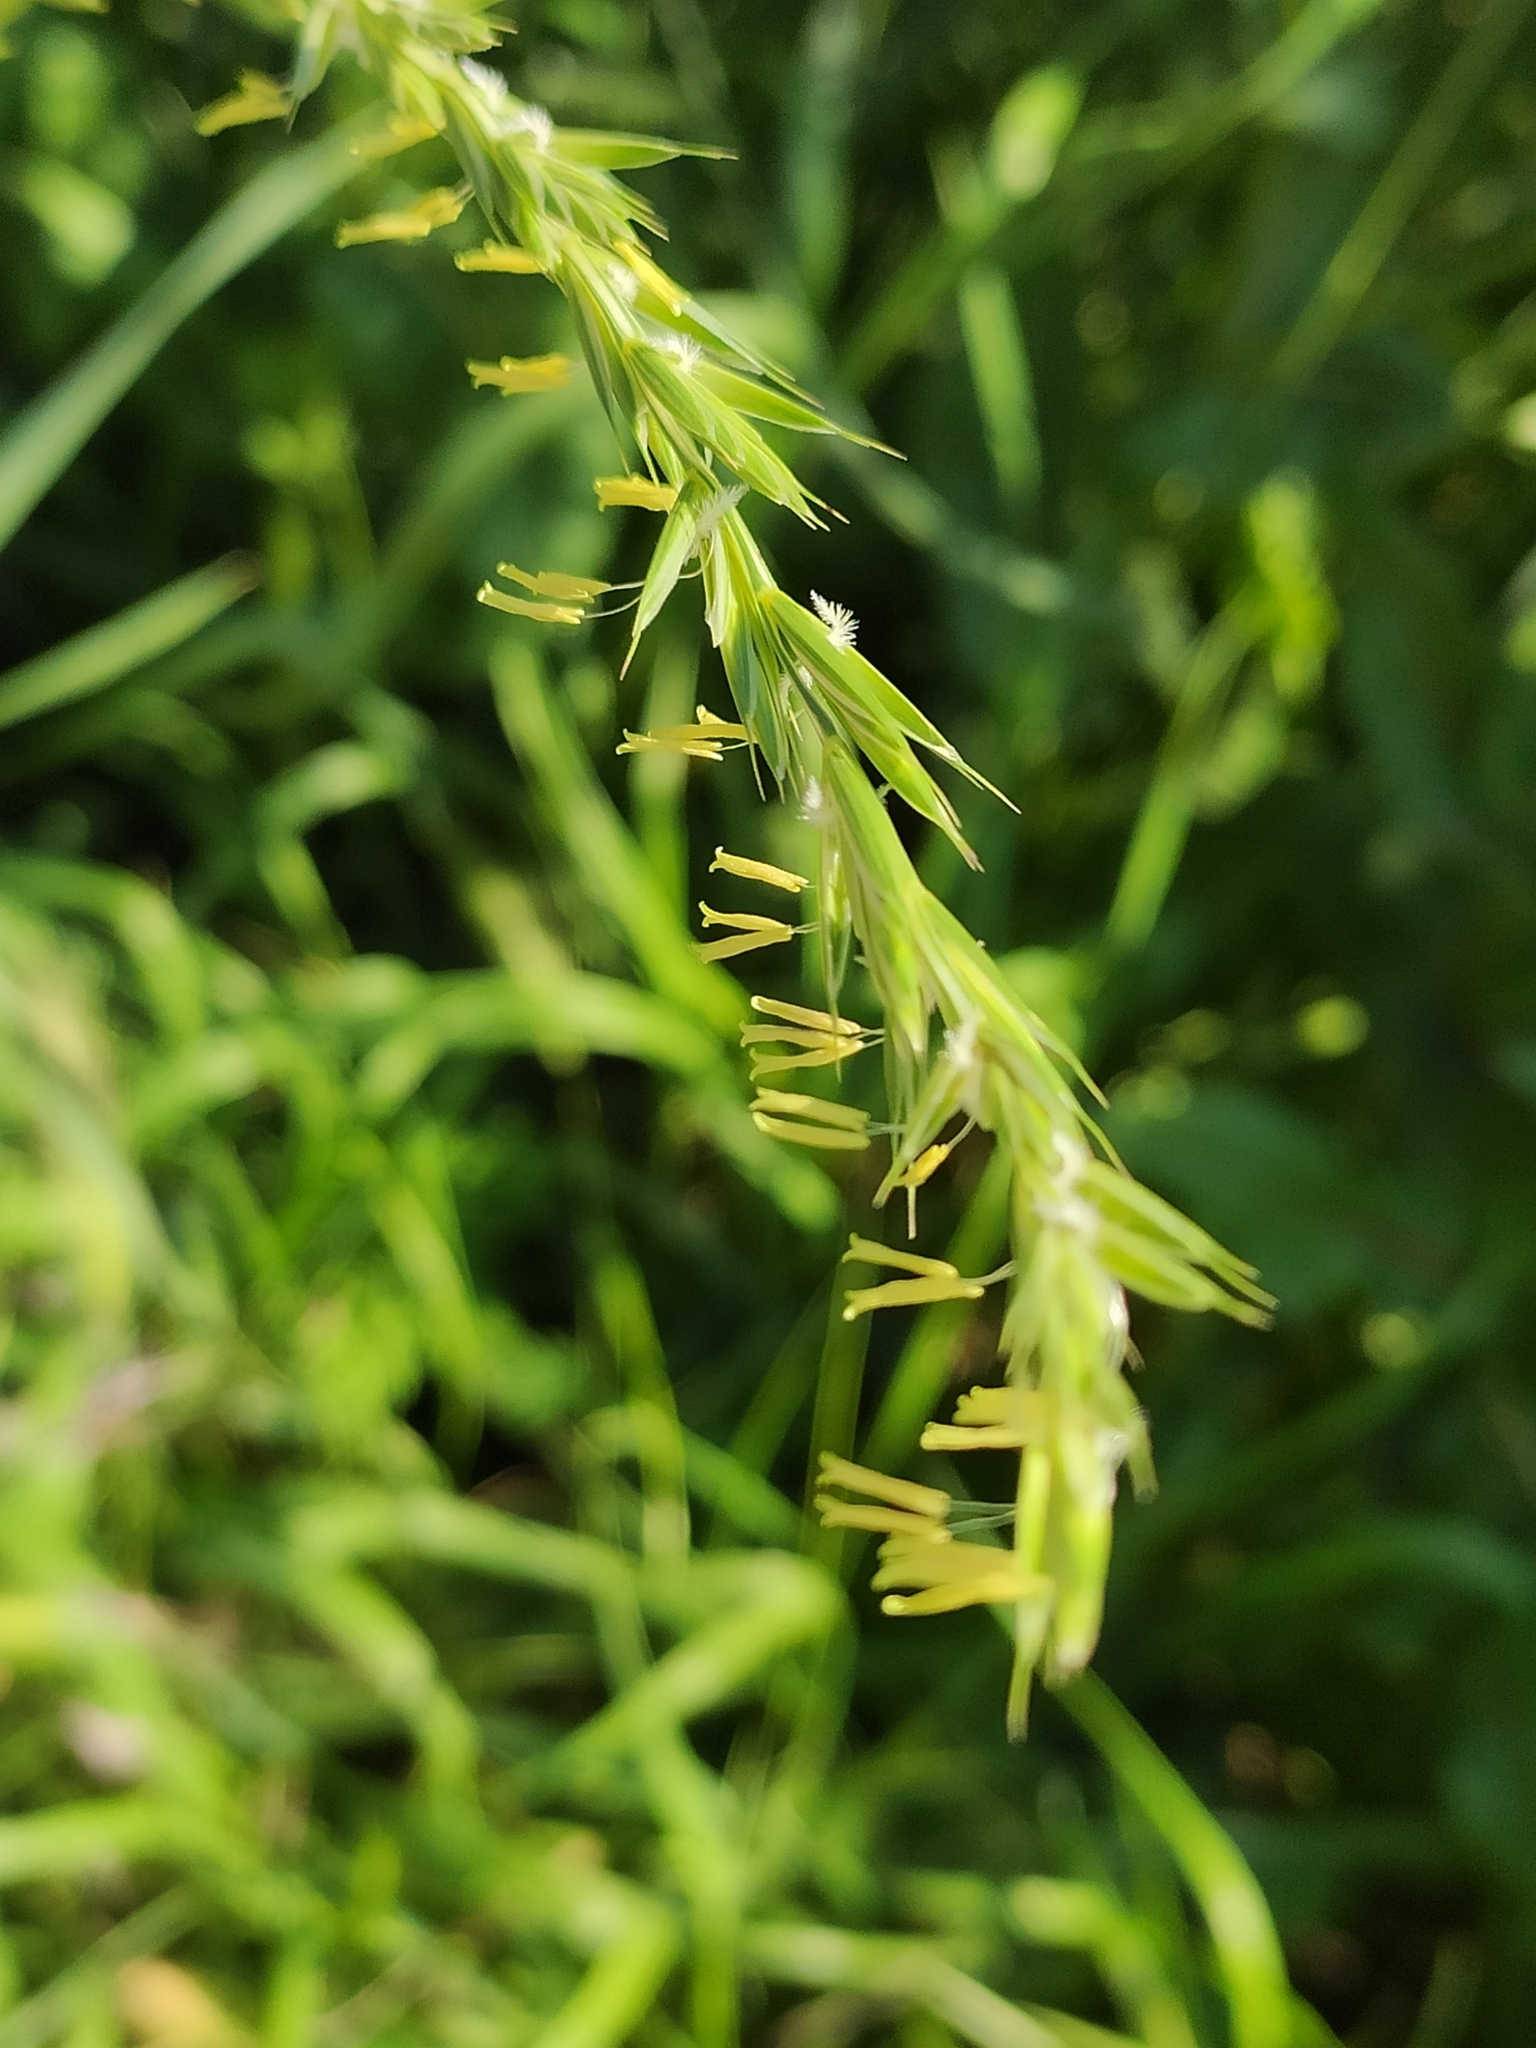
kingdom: Plantae
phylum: Tracheophyta
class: Liliopsida
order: Poales
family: Poaceae
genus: Elymus
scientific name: Elymus repens
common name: Quackgrass
